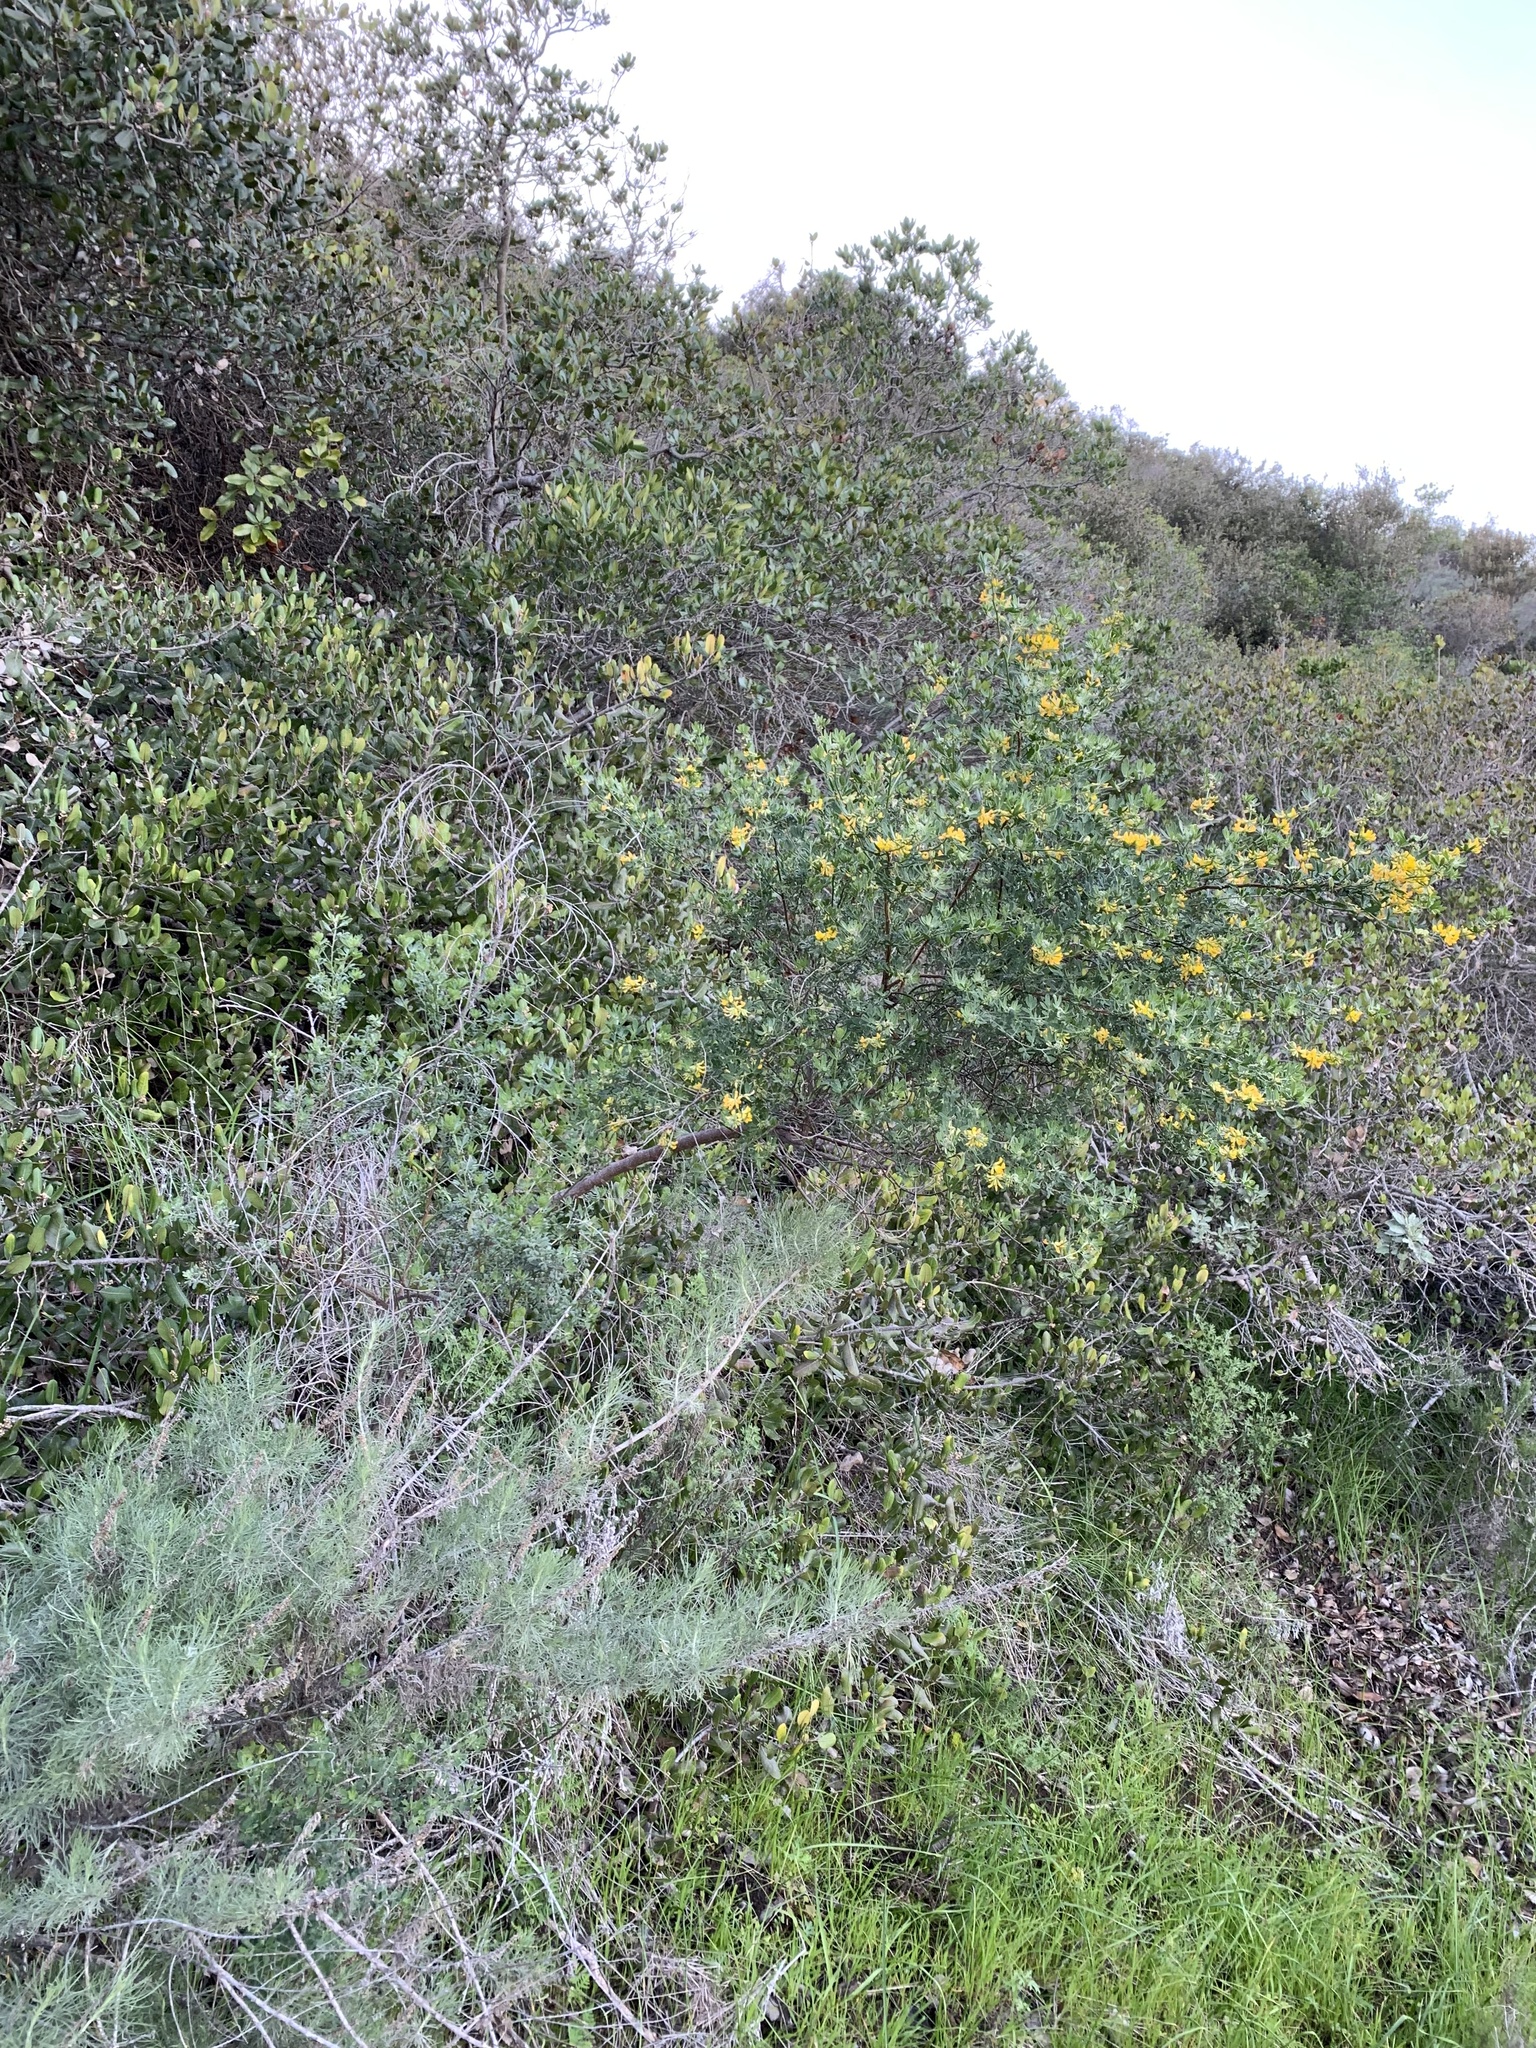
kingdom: Plantae
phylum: Tracheophyta
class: Magnoliopsida
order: Fabales
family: Fabaceae
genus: Acmispon
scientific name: Acmispon dendroideus
